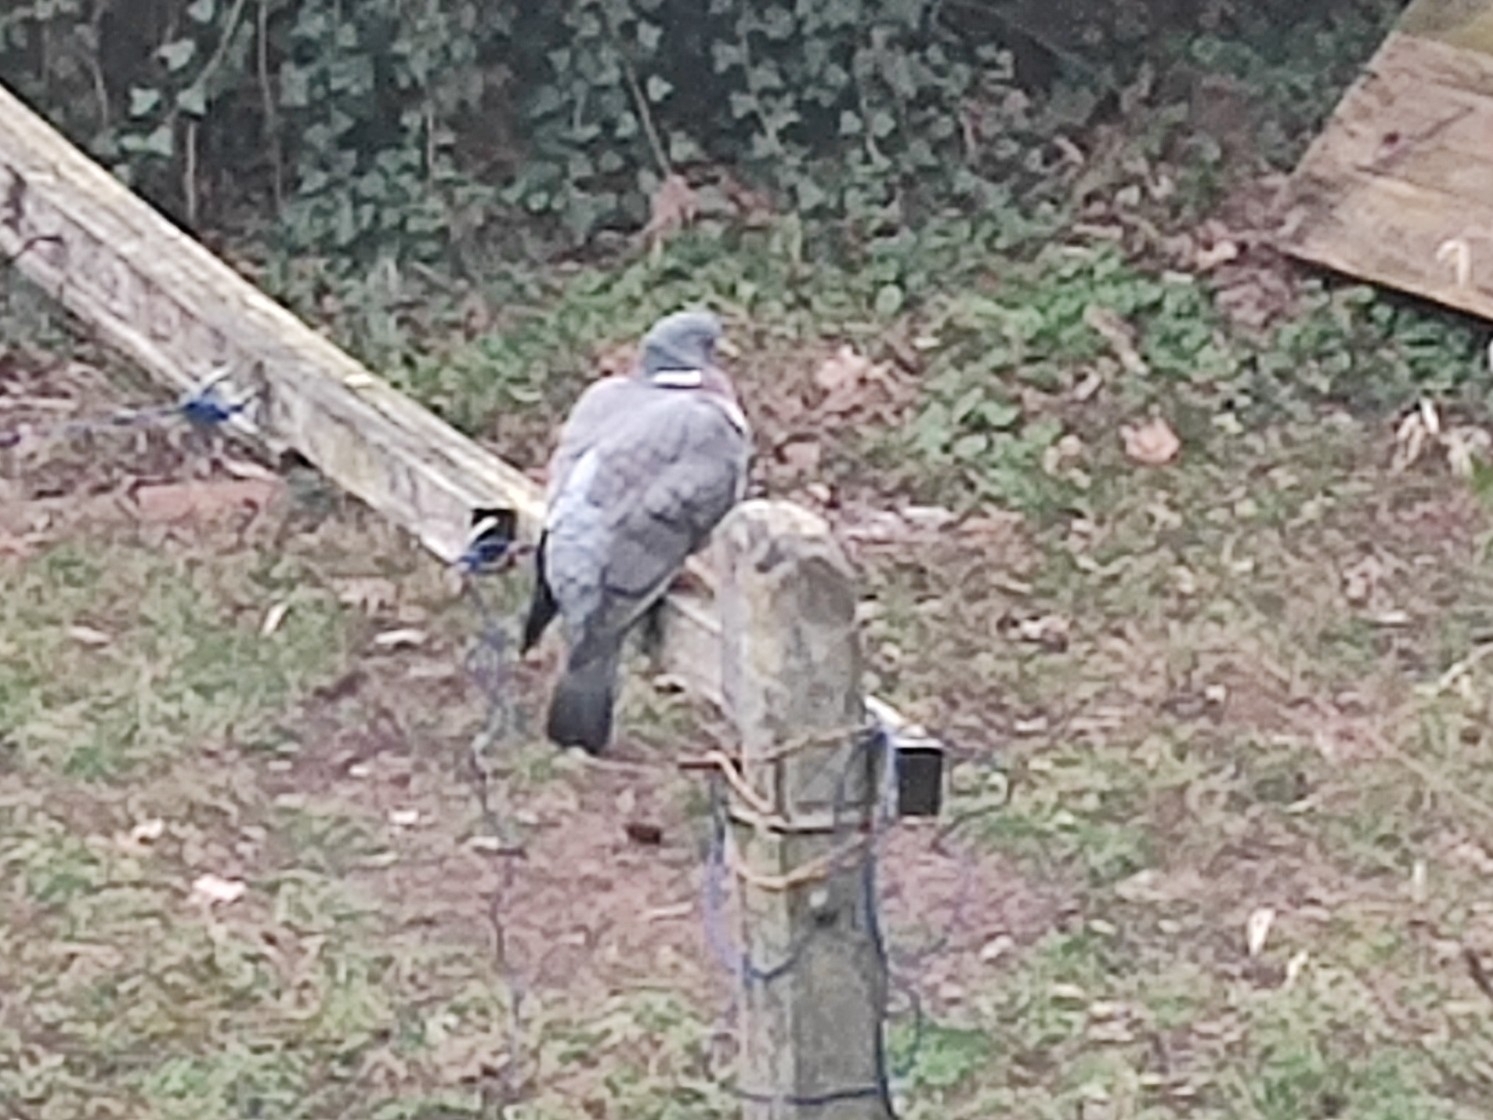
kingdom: Animalia
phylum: Chordata
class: Aves
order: Columbiformes
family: Columbidae
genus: Columba
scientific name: Columba palumbus
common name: Common wood pigeon
